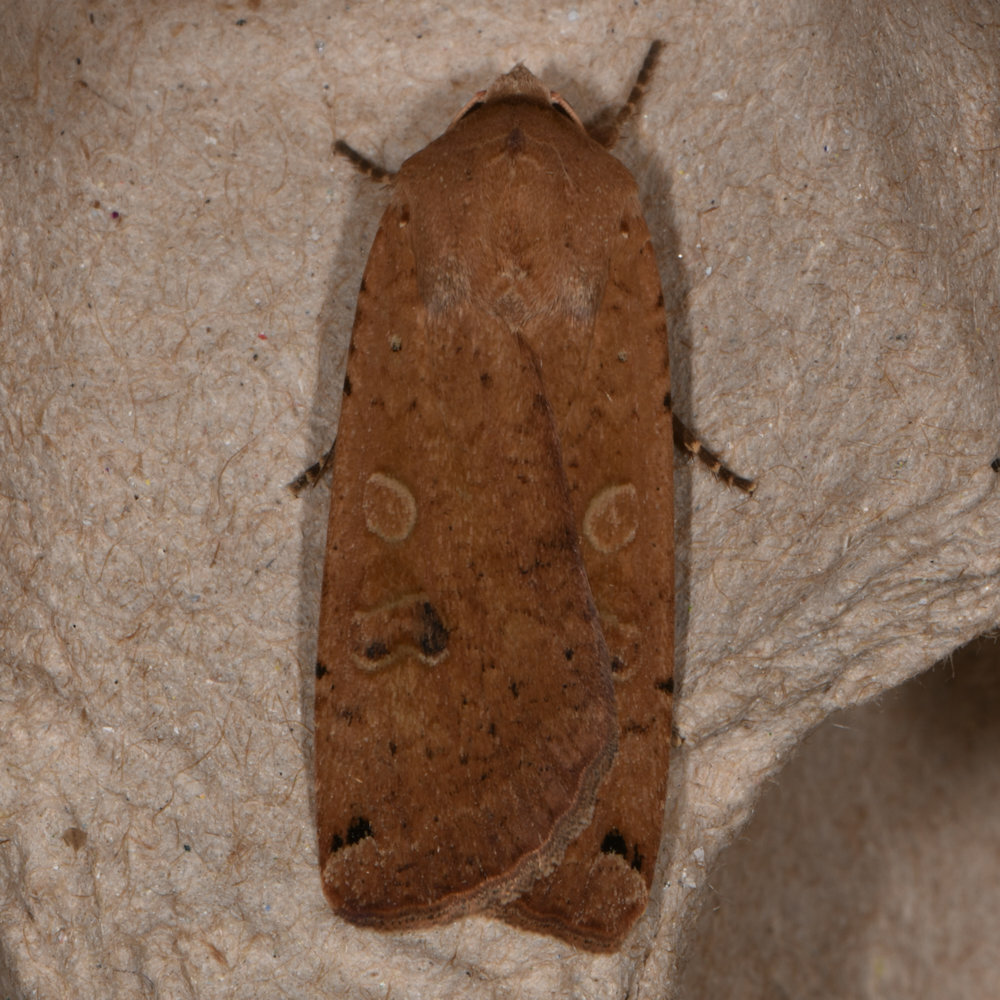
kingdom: Animalia
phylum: Arthropoda
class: Insecta
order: Lepidoptera
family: Noctuidae
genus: Noctua
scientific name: Noctua pronuba
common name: Large yellow underwing
